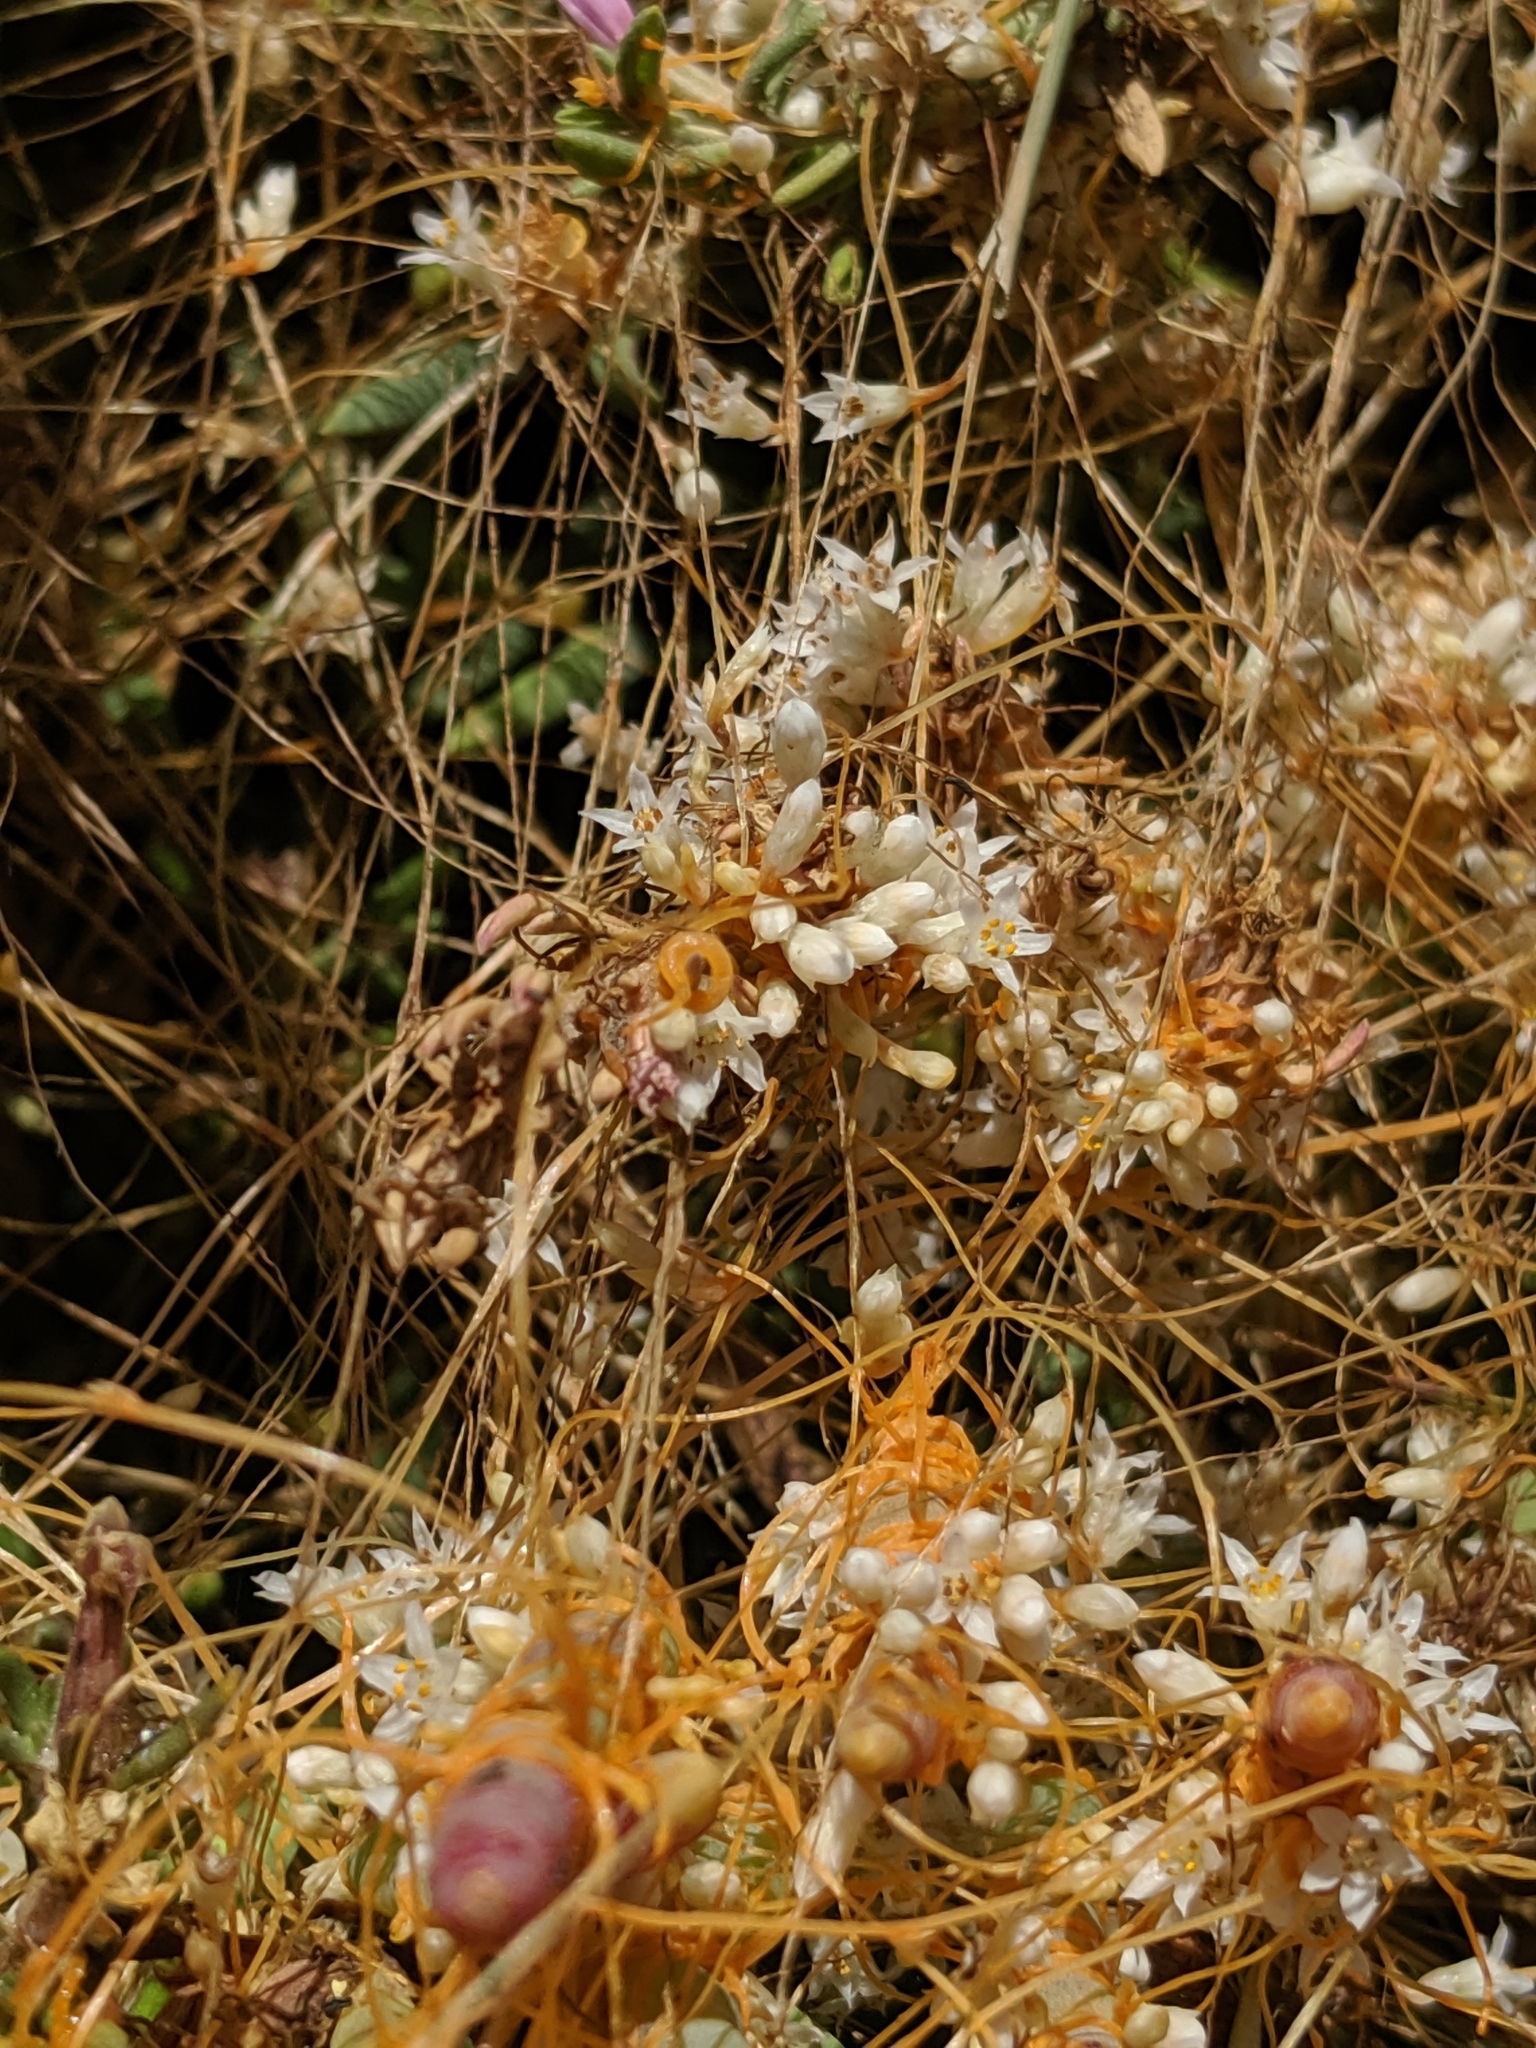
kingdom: Plantae
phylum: Tracheophyta
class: Magnoliopsida
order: Solanales
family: Convolvulaceae
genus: Cuscuta
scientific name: Cuscuta pacifica
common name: Large saltmarsh dodder
